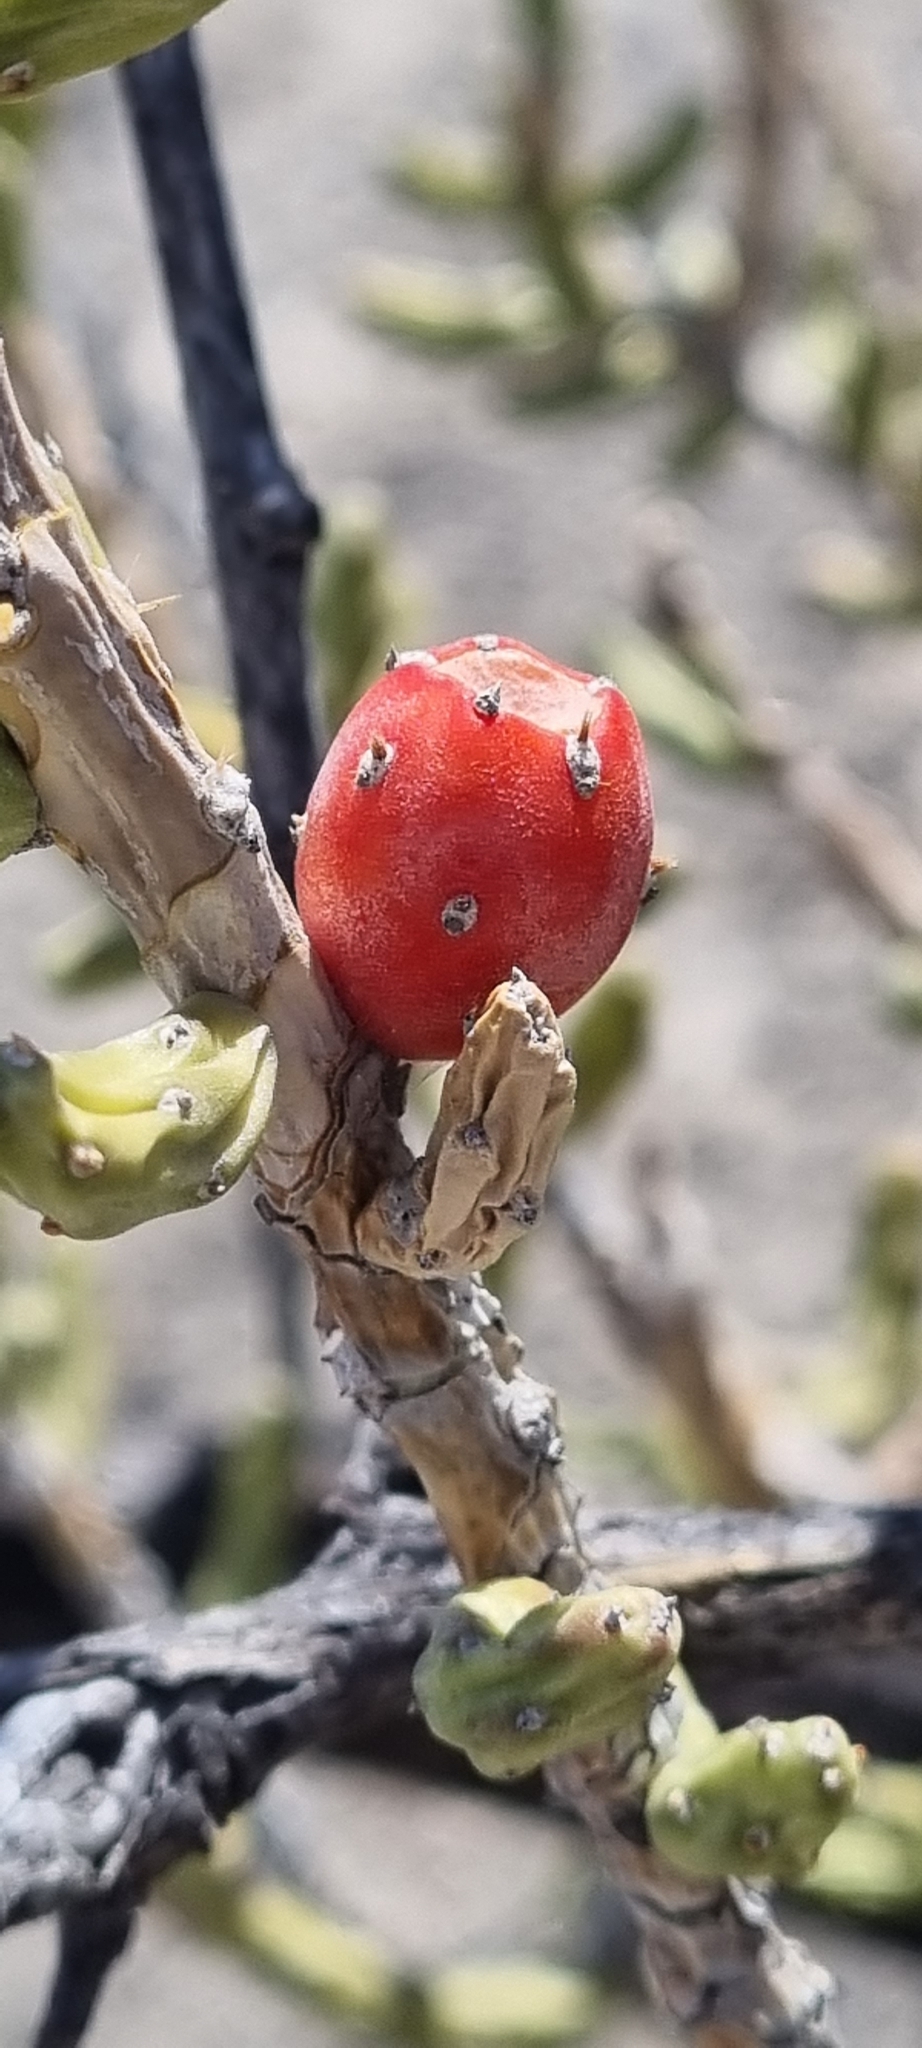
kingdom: Plantae
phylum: Tracheophyta
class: Magnoliopsida
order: Caryophyllales
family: Cactaceae
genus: Cylindropuntia
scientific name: Cylindropuntia leptocaulis
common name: Christmas cactus
